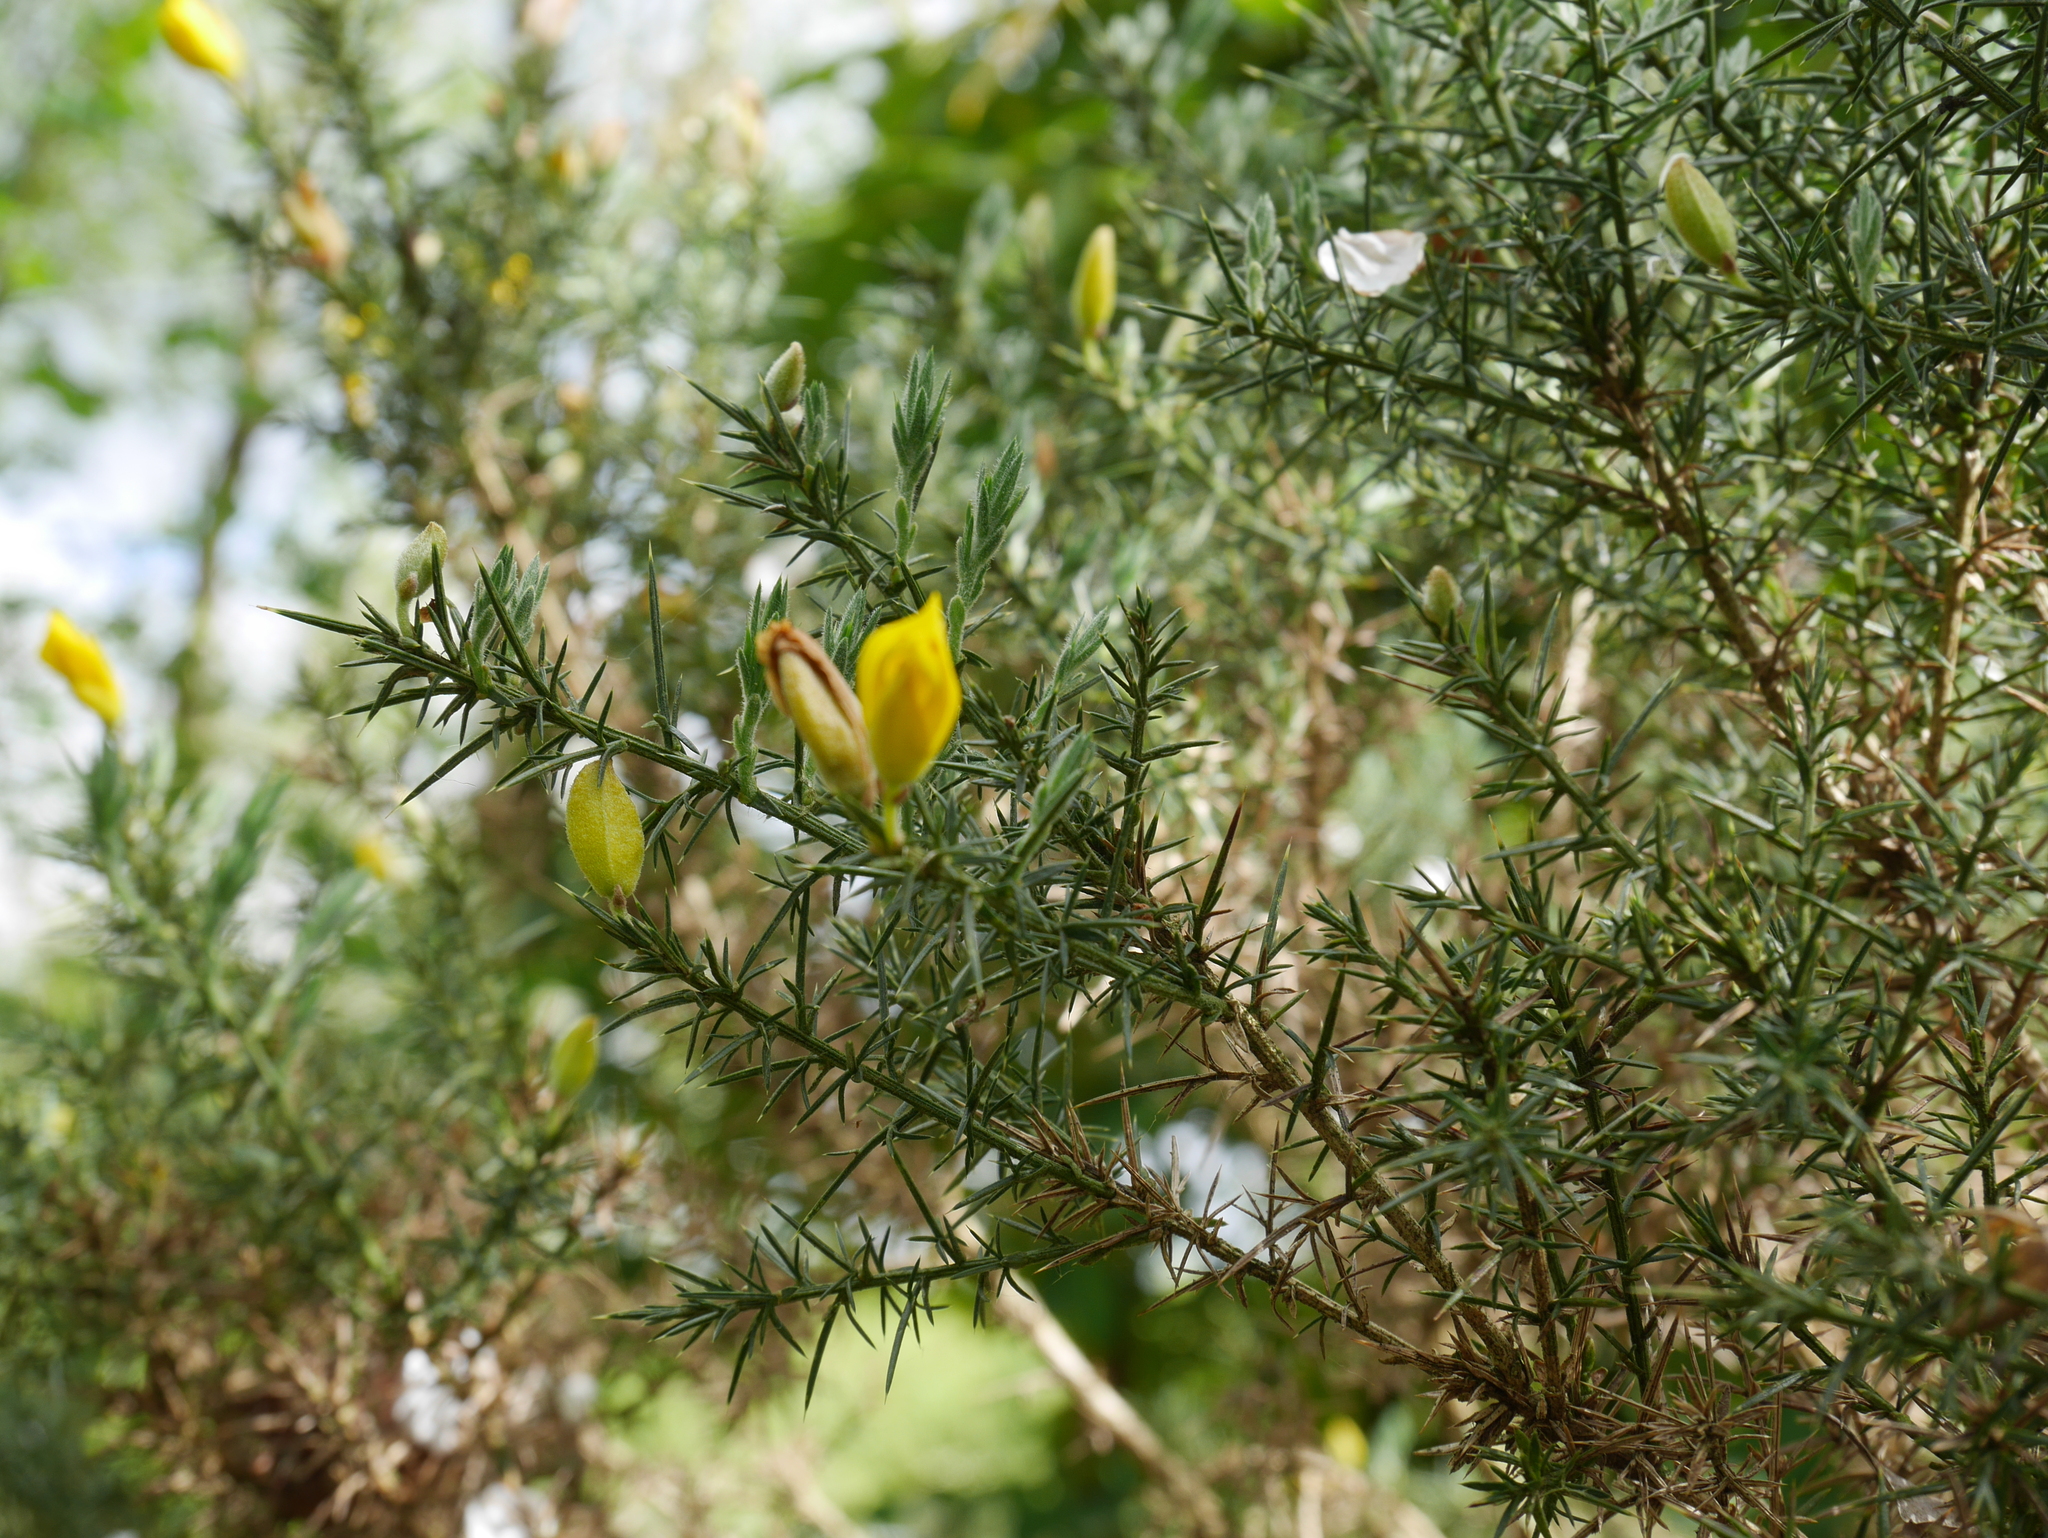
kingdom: Plantae
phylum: Tracheophyta
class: Magnoliopsida
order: Fabales
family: Fabaceae
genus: Ulex
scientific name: Ulex europaeus
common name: Common gorse
